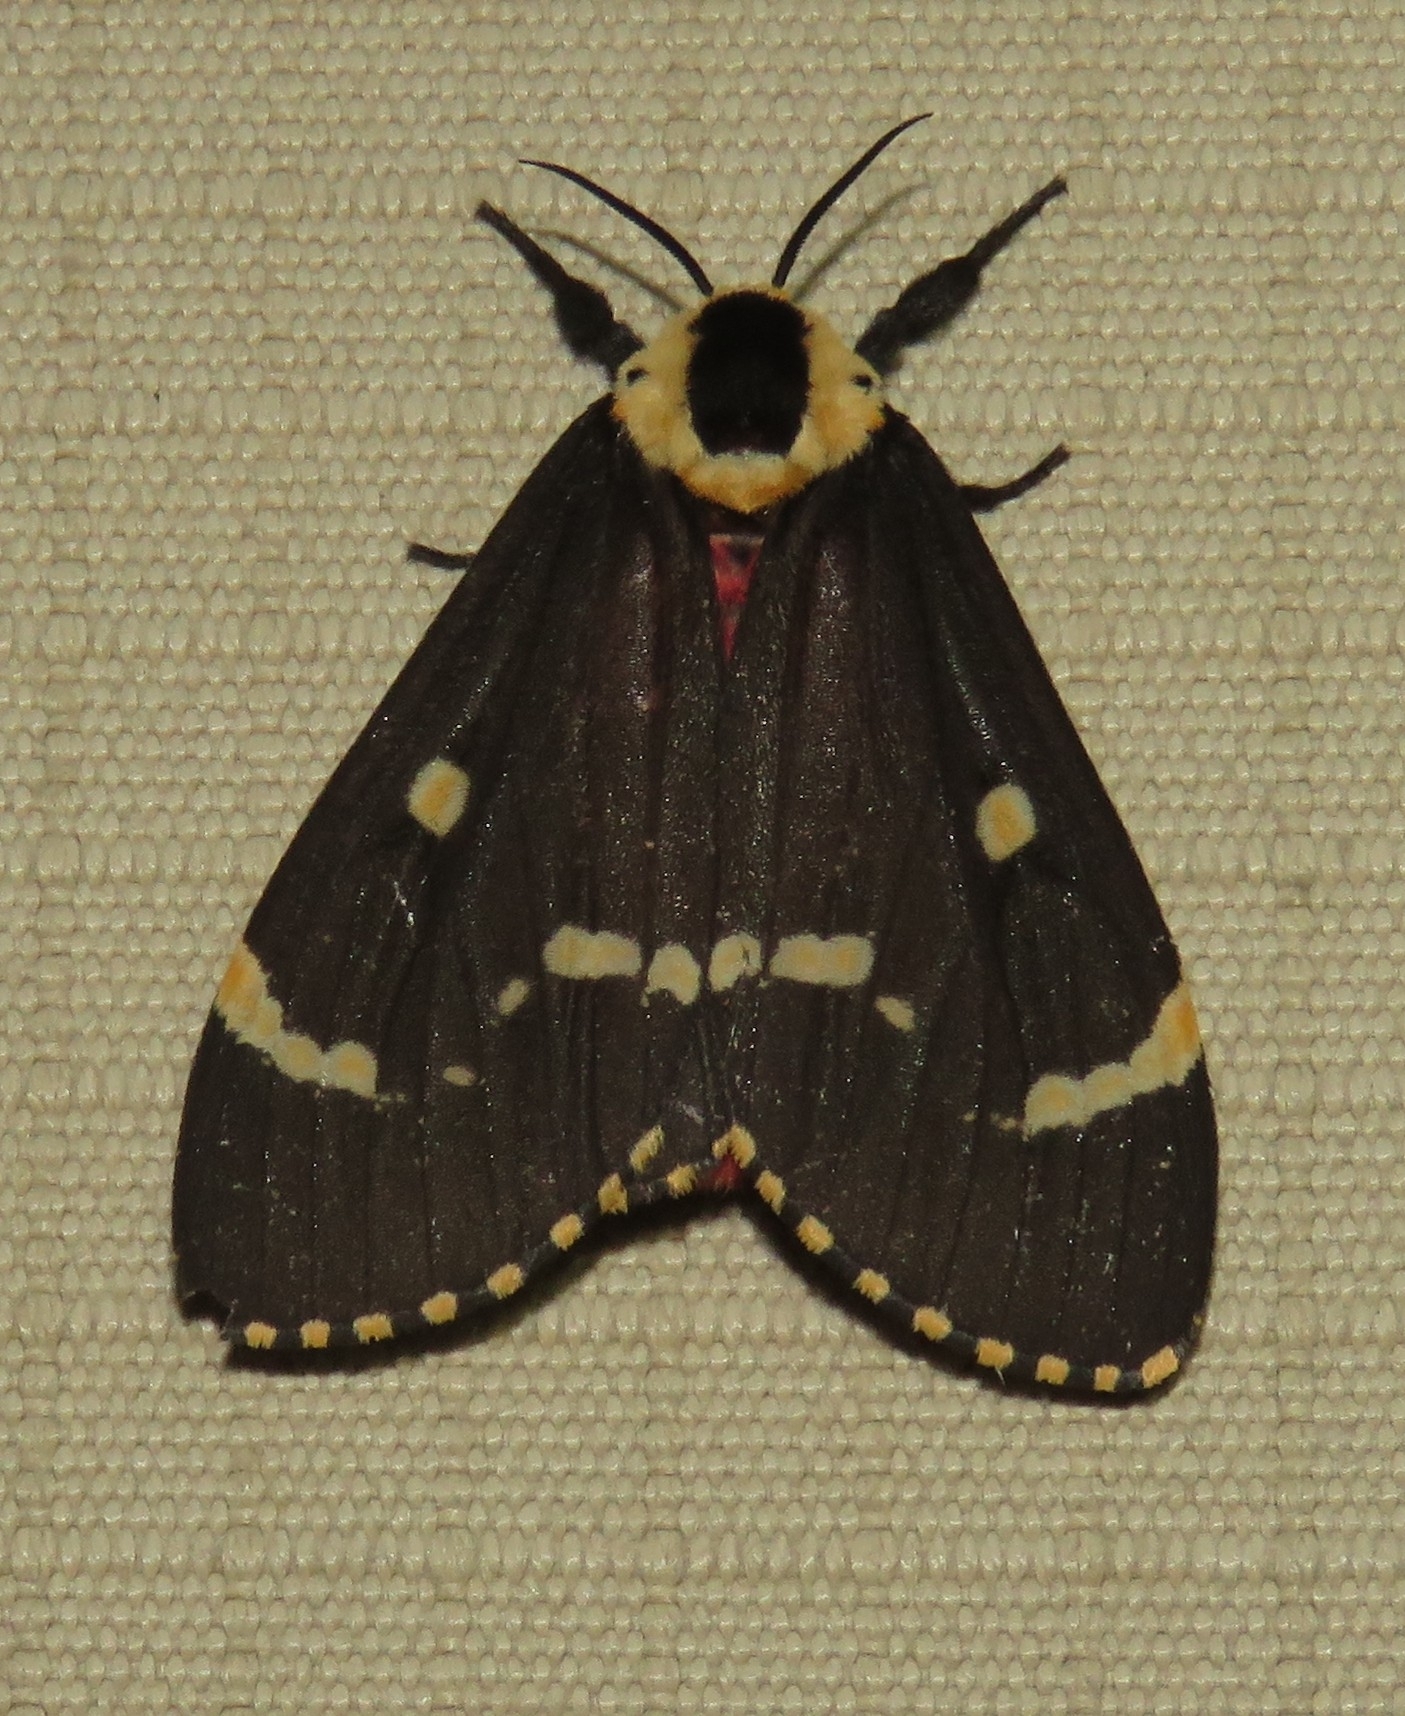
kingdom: Animalia
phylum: Arthropoda
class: Insecta
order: Lepidoptera
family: Erebidae
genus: Lymantria
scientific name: Lymantria semicincta
